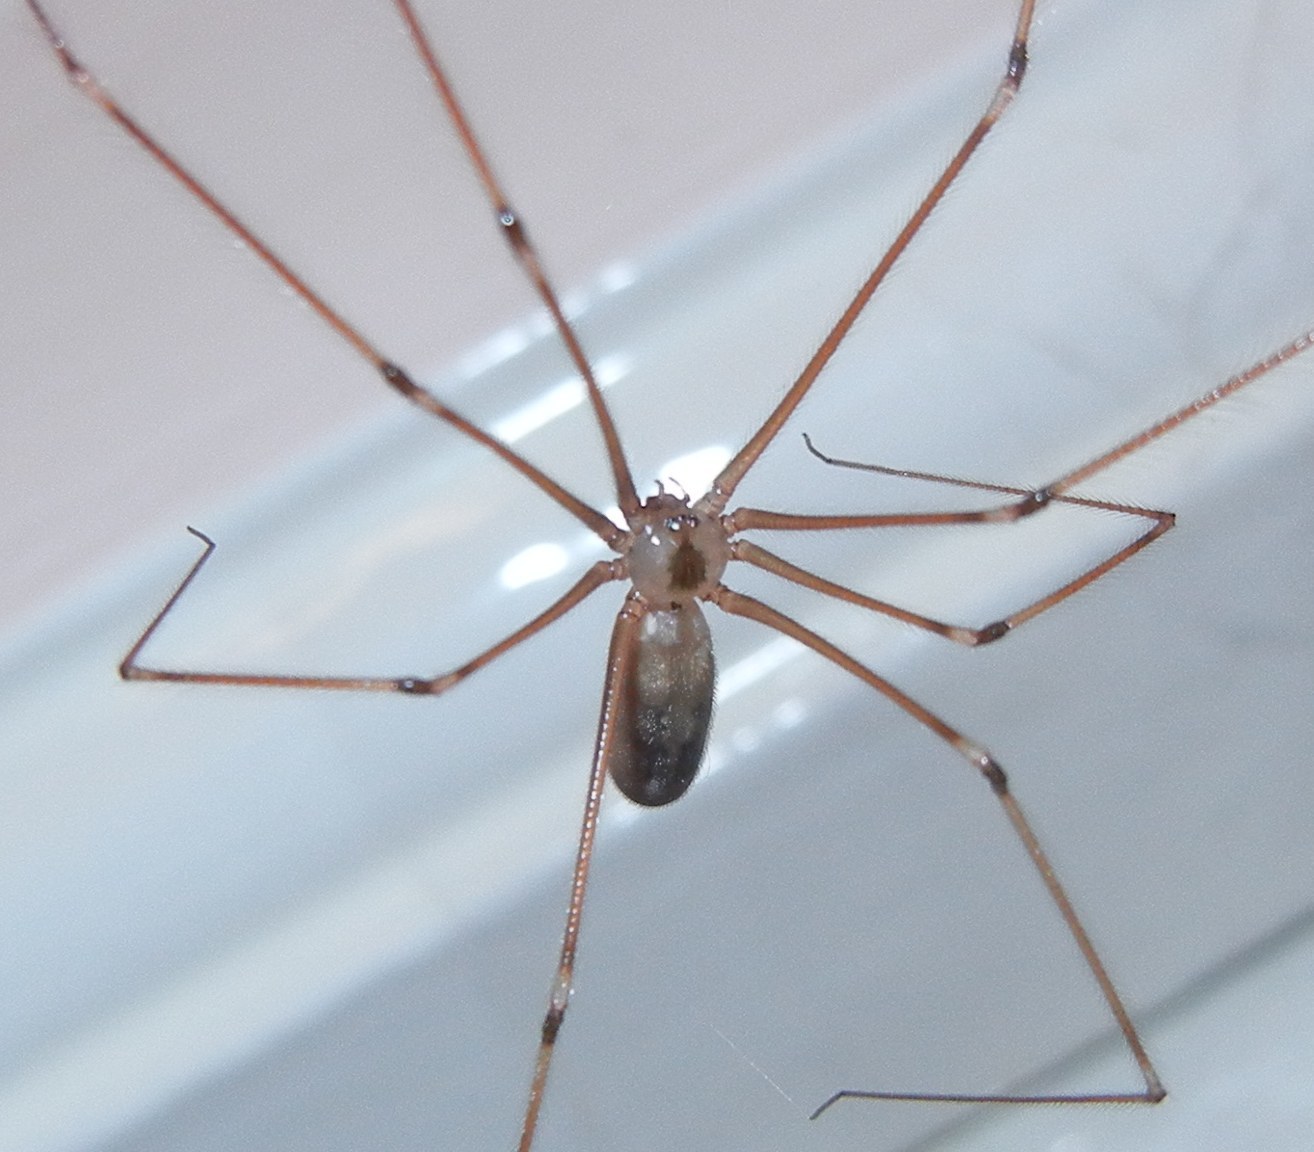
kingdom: Animalia
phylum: Arthropoda
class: Arachnida
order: Araneae
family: Pholcidae
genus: Pholcus
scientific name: Pholcus phalangioides
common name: Longbodied cellar spider
